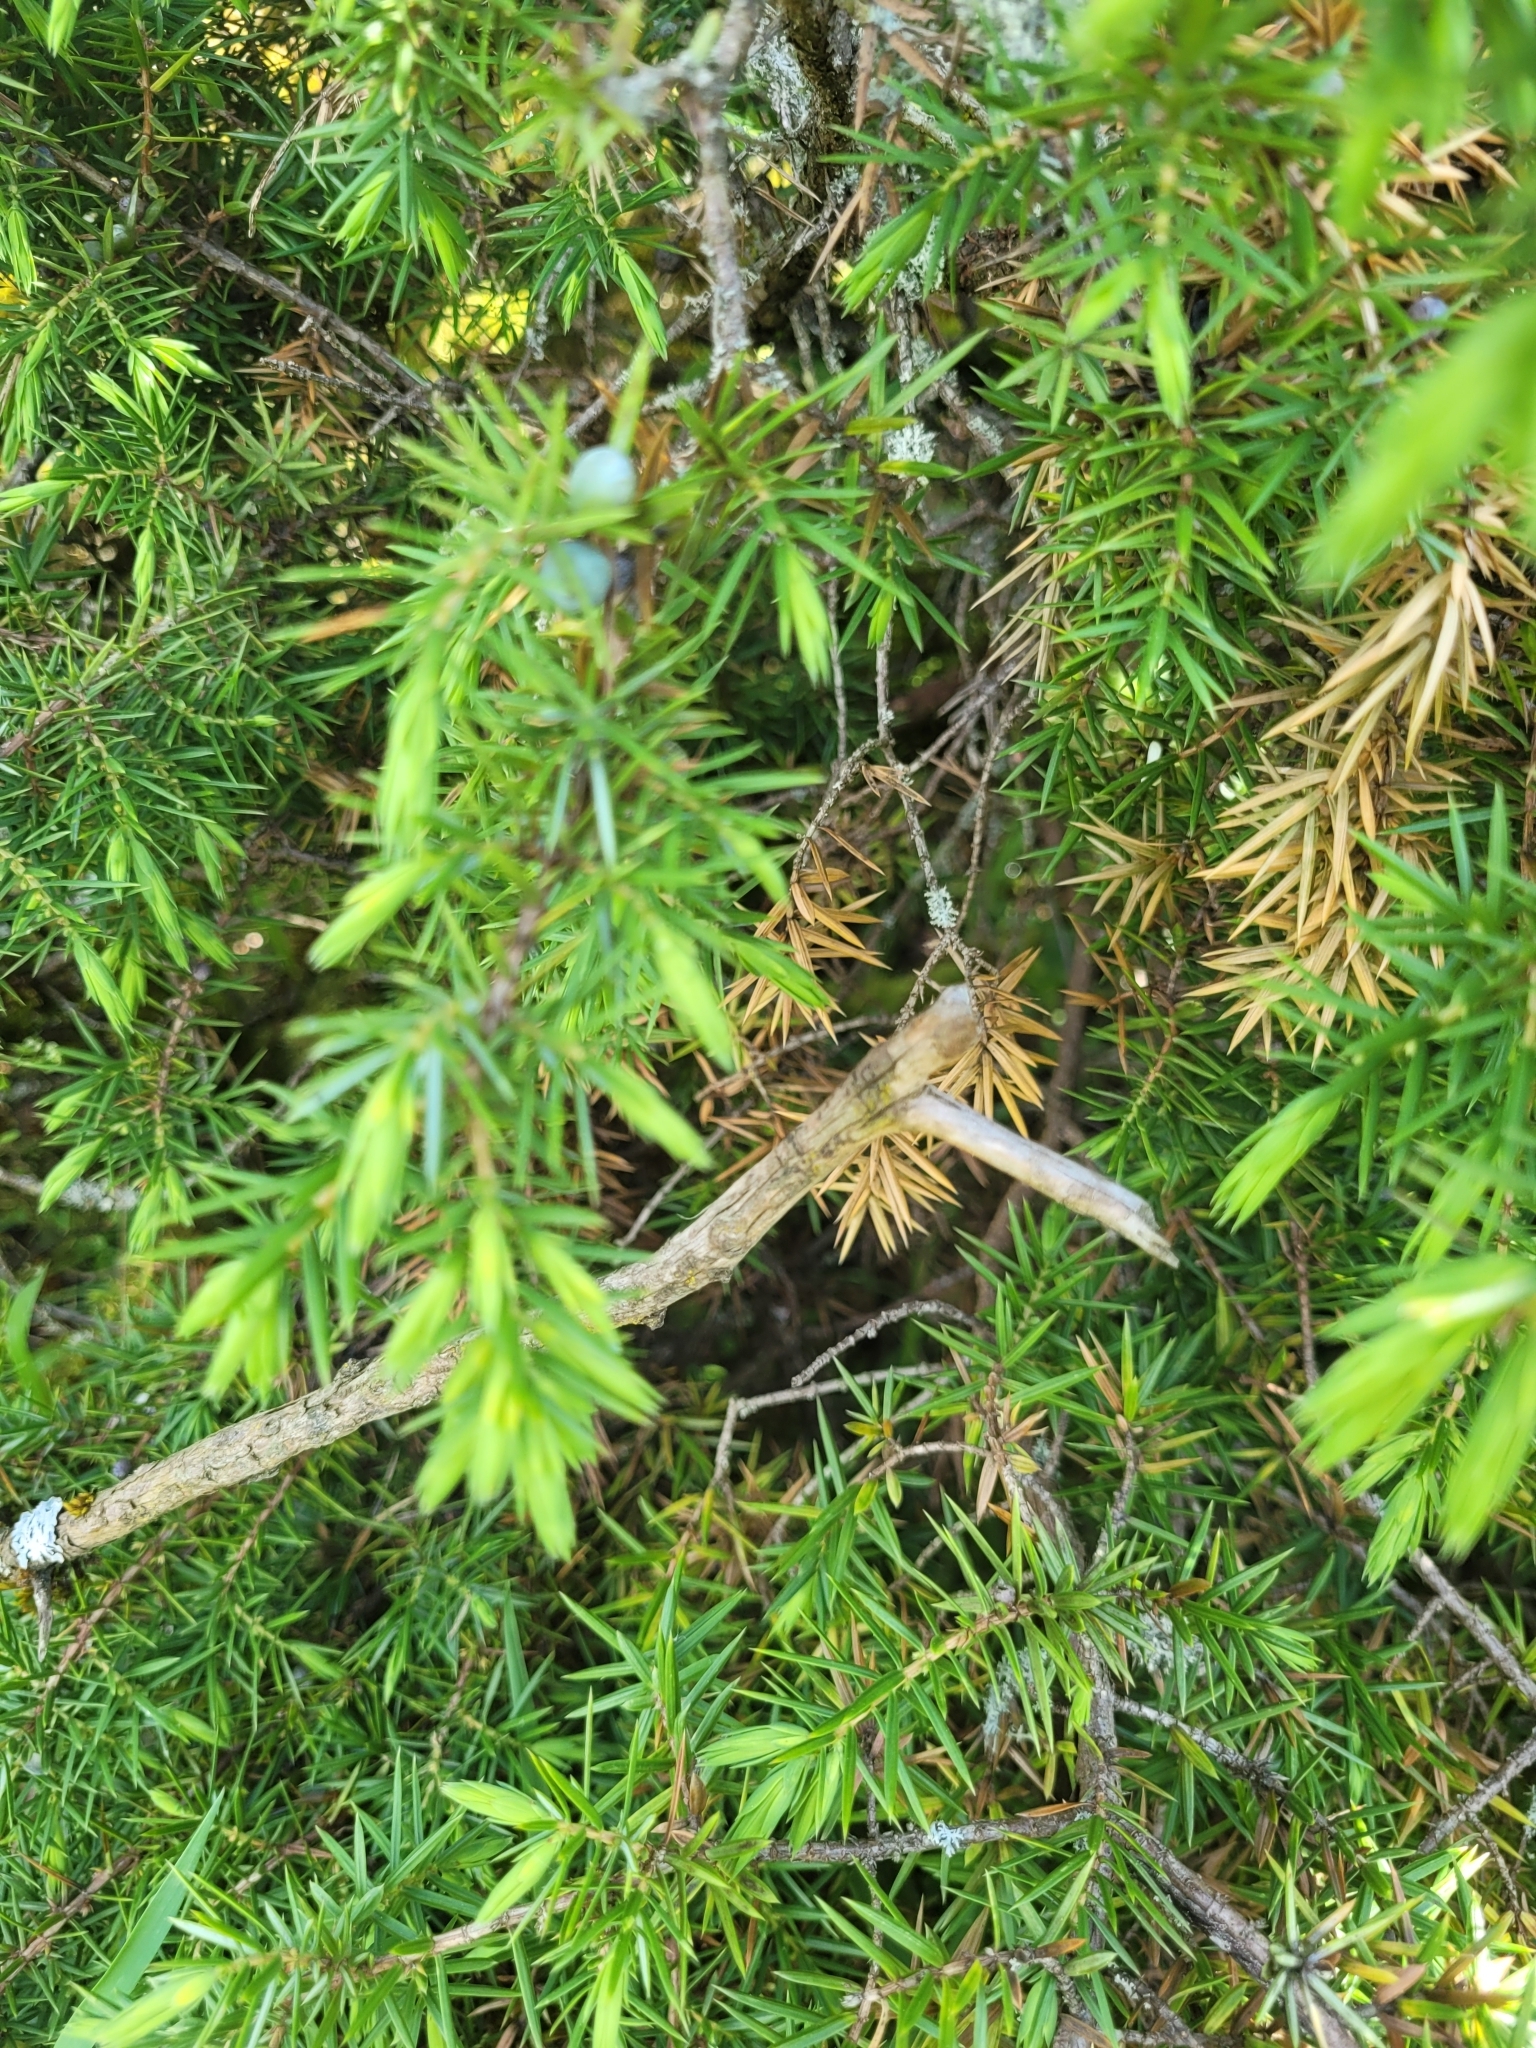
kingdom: Plantae
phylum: Tracheophyta
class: Pinopsida
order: Pinales
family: Cupressaceae
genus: Juniperus
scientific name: Juniperus communis
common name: Common juniper
